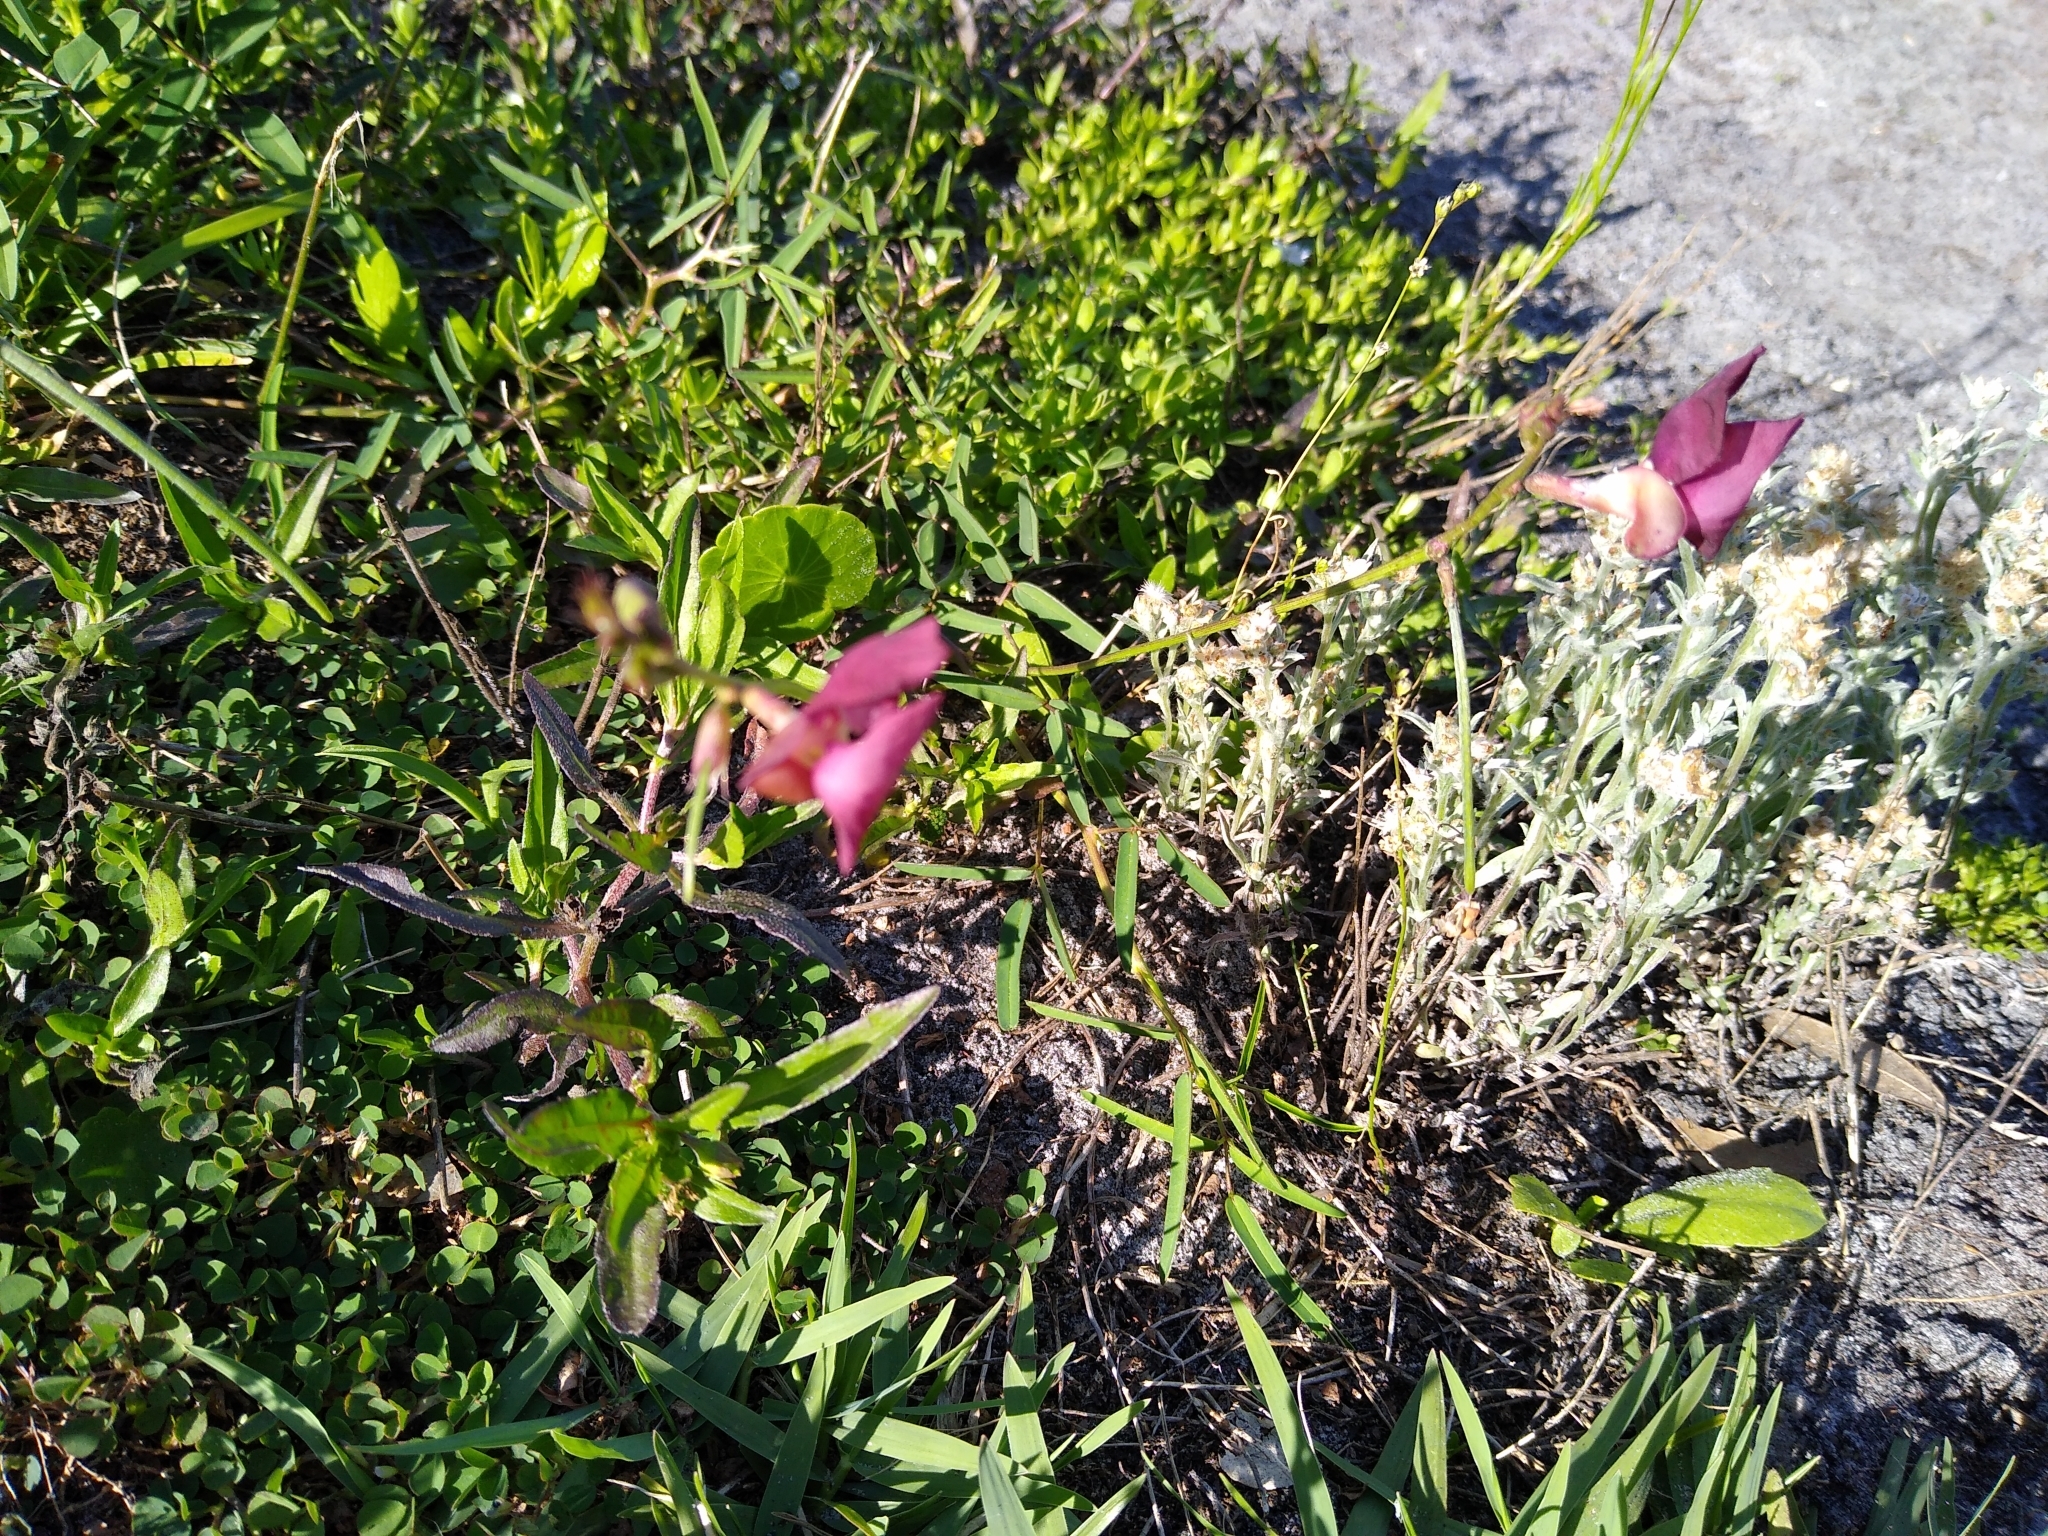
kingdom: Plantae
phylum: Tracheophyta
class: Magnoliopsida
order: Fabales
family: Fabaceae
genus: Macroptilium
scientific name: Macroptilium lathyroides
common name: Wild bushbean
